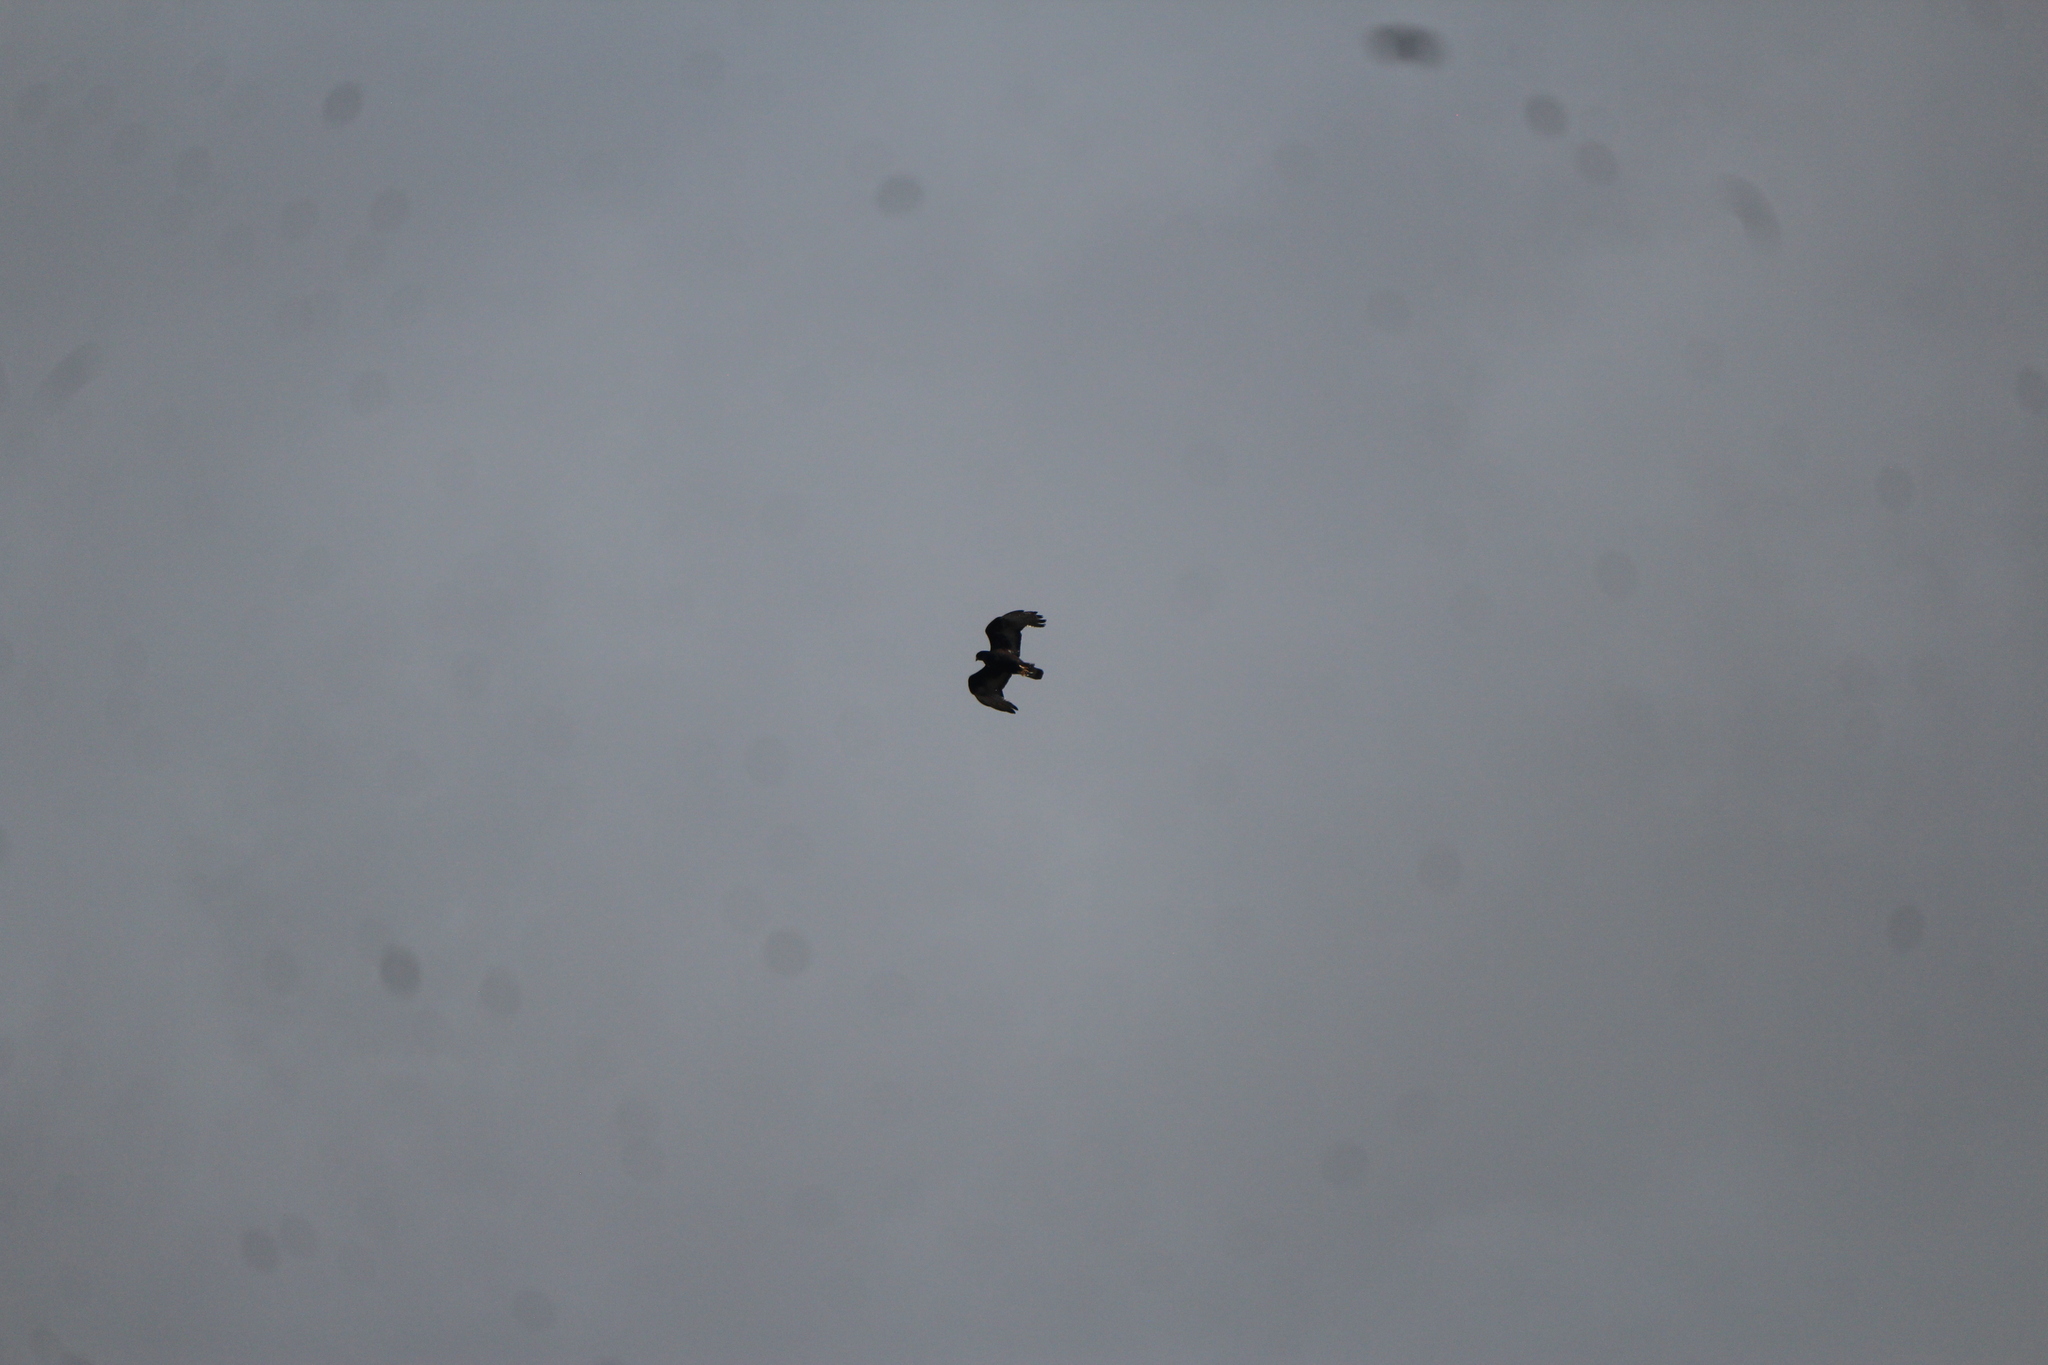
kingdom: Animalia
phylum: Chordata
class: Aves
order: Accipitriformes
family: Accipitridae
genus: Buteo
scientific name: Buteo albonotatus
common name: Zone-tailed hawk
